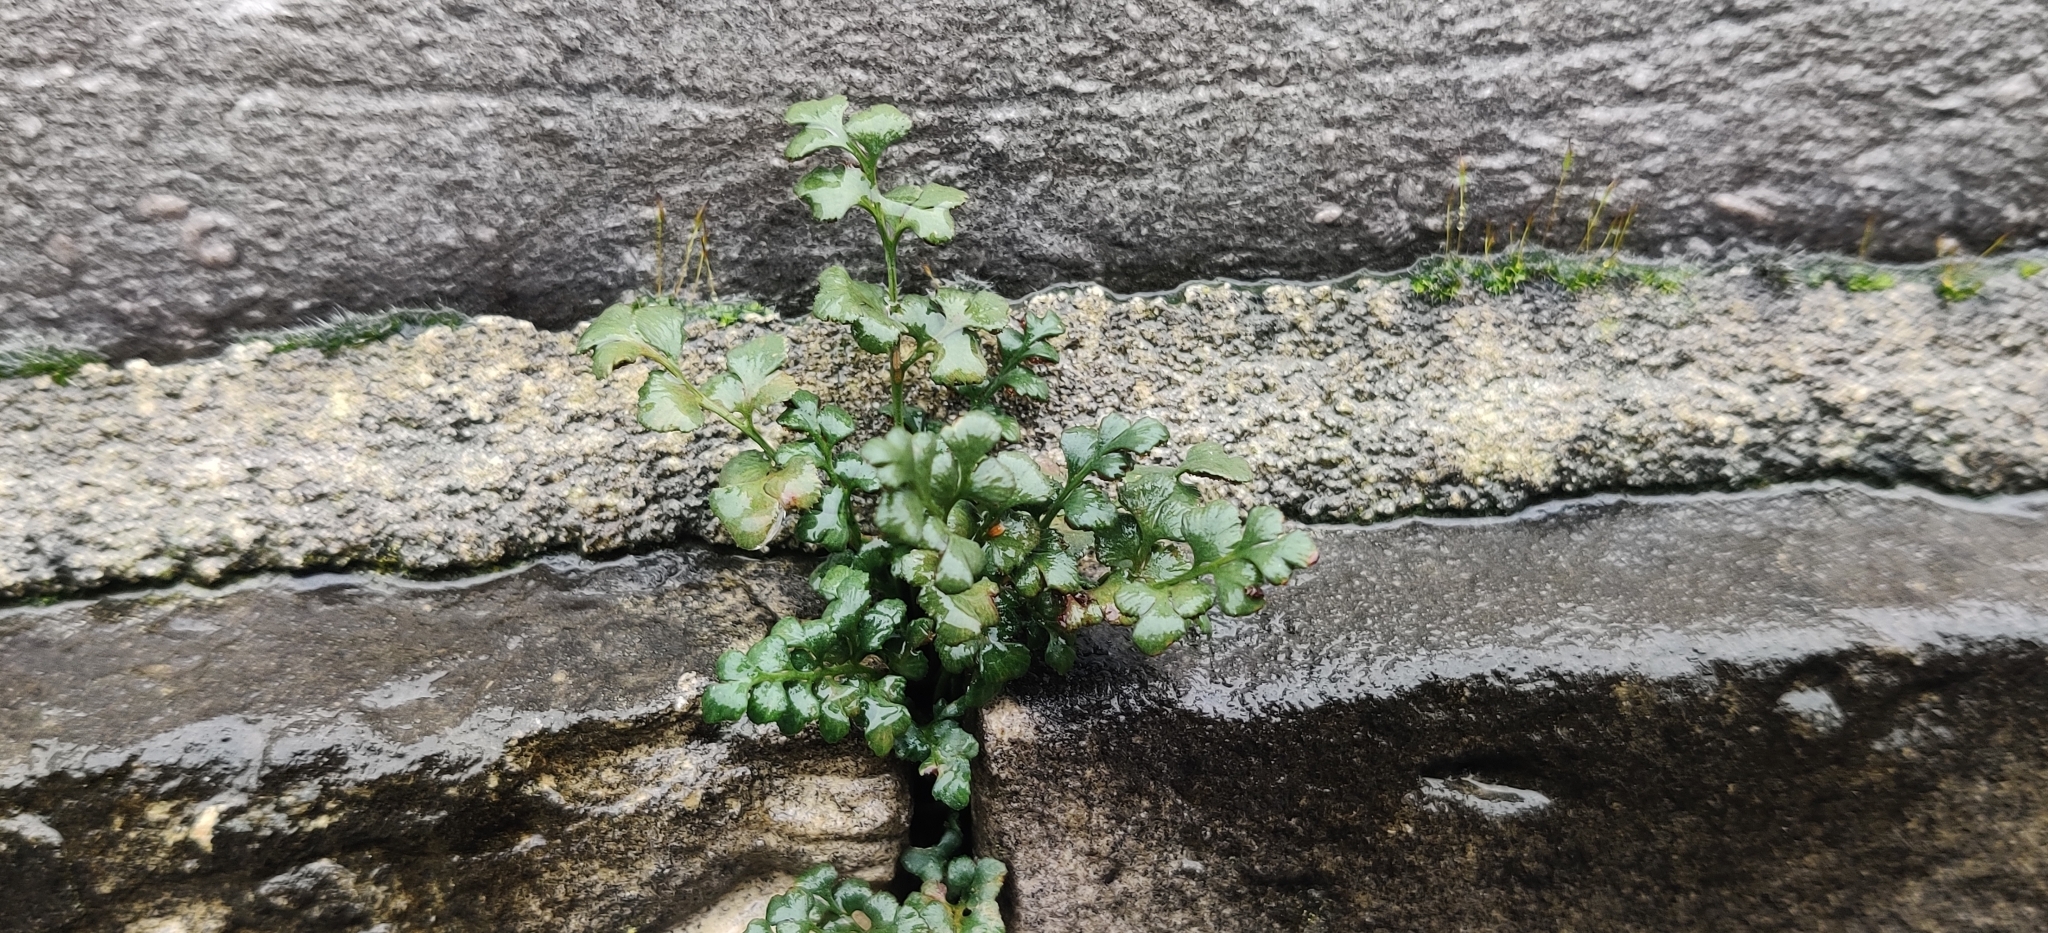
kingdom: Plantae
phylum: Tracheophyta
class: Polypodiopsida
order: Polypodiales
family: Aspleniaceae
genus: Asplenium
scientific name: Asplenium ruta-muraria
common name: Wall-rue
